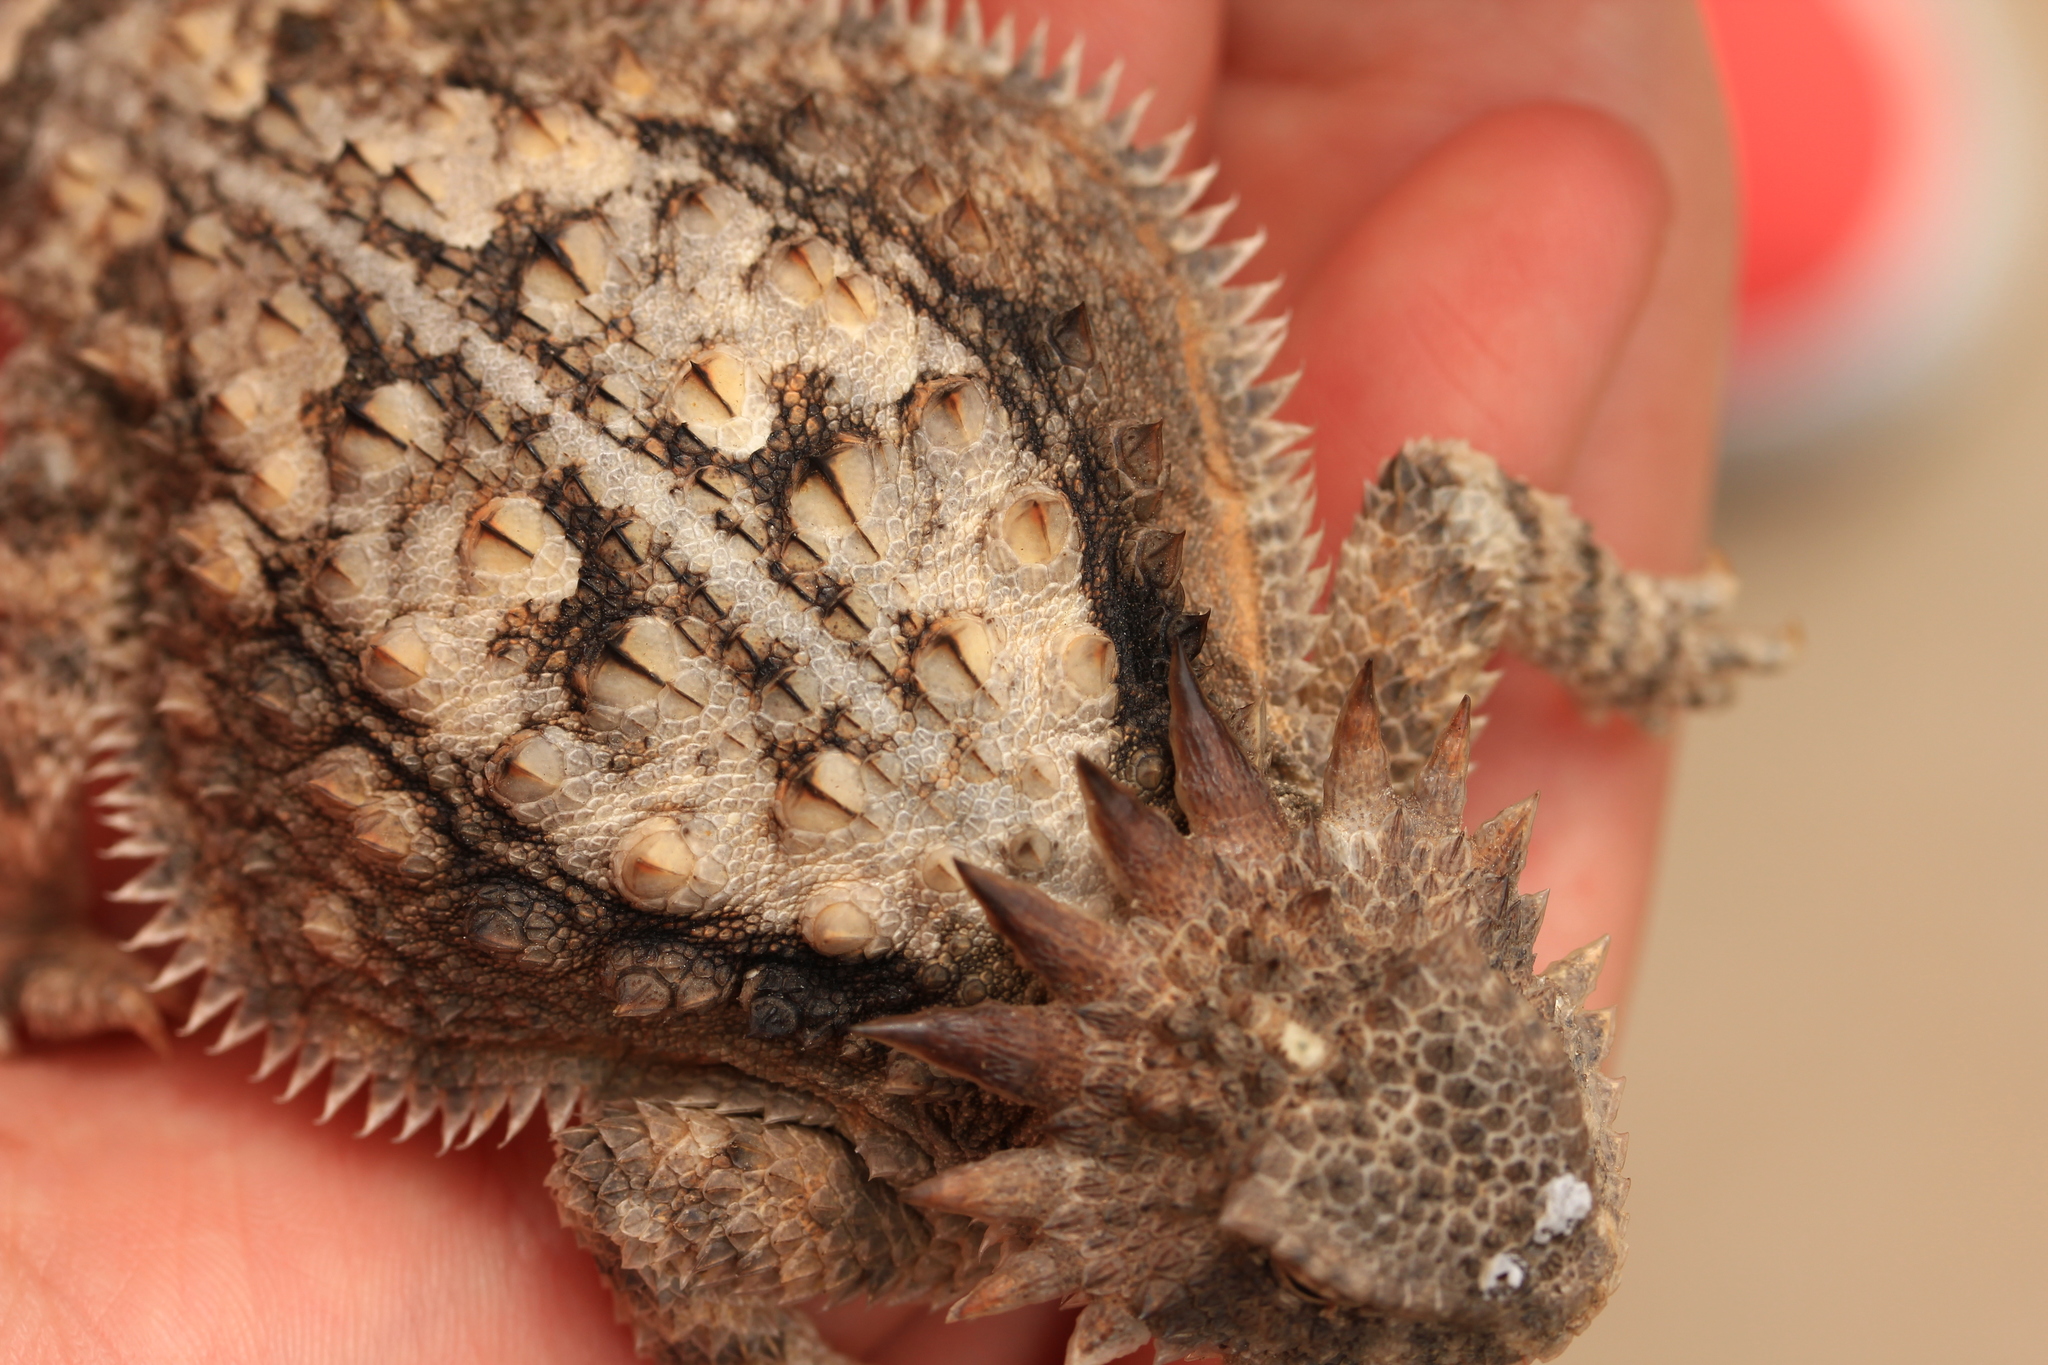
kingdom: Animalia
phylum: Chordata
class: Squamata
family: Phrynosomatidae
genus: Phrynosoma
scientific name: Phrynosoma solare
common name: Regal horned lizard
